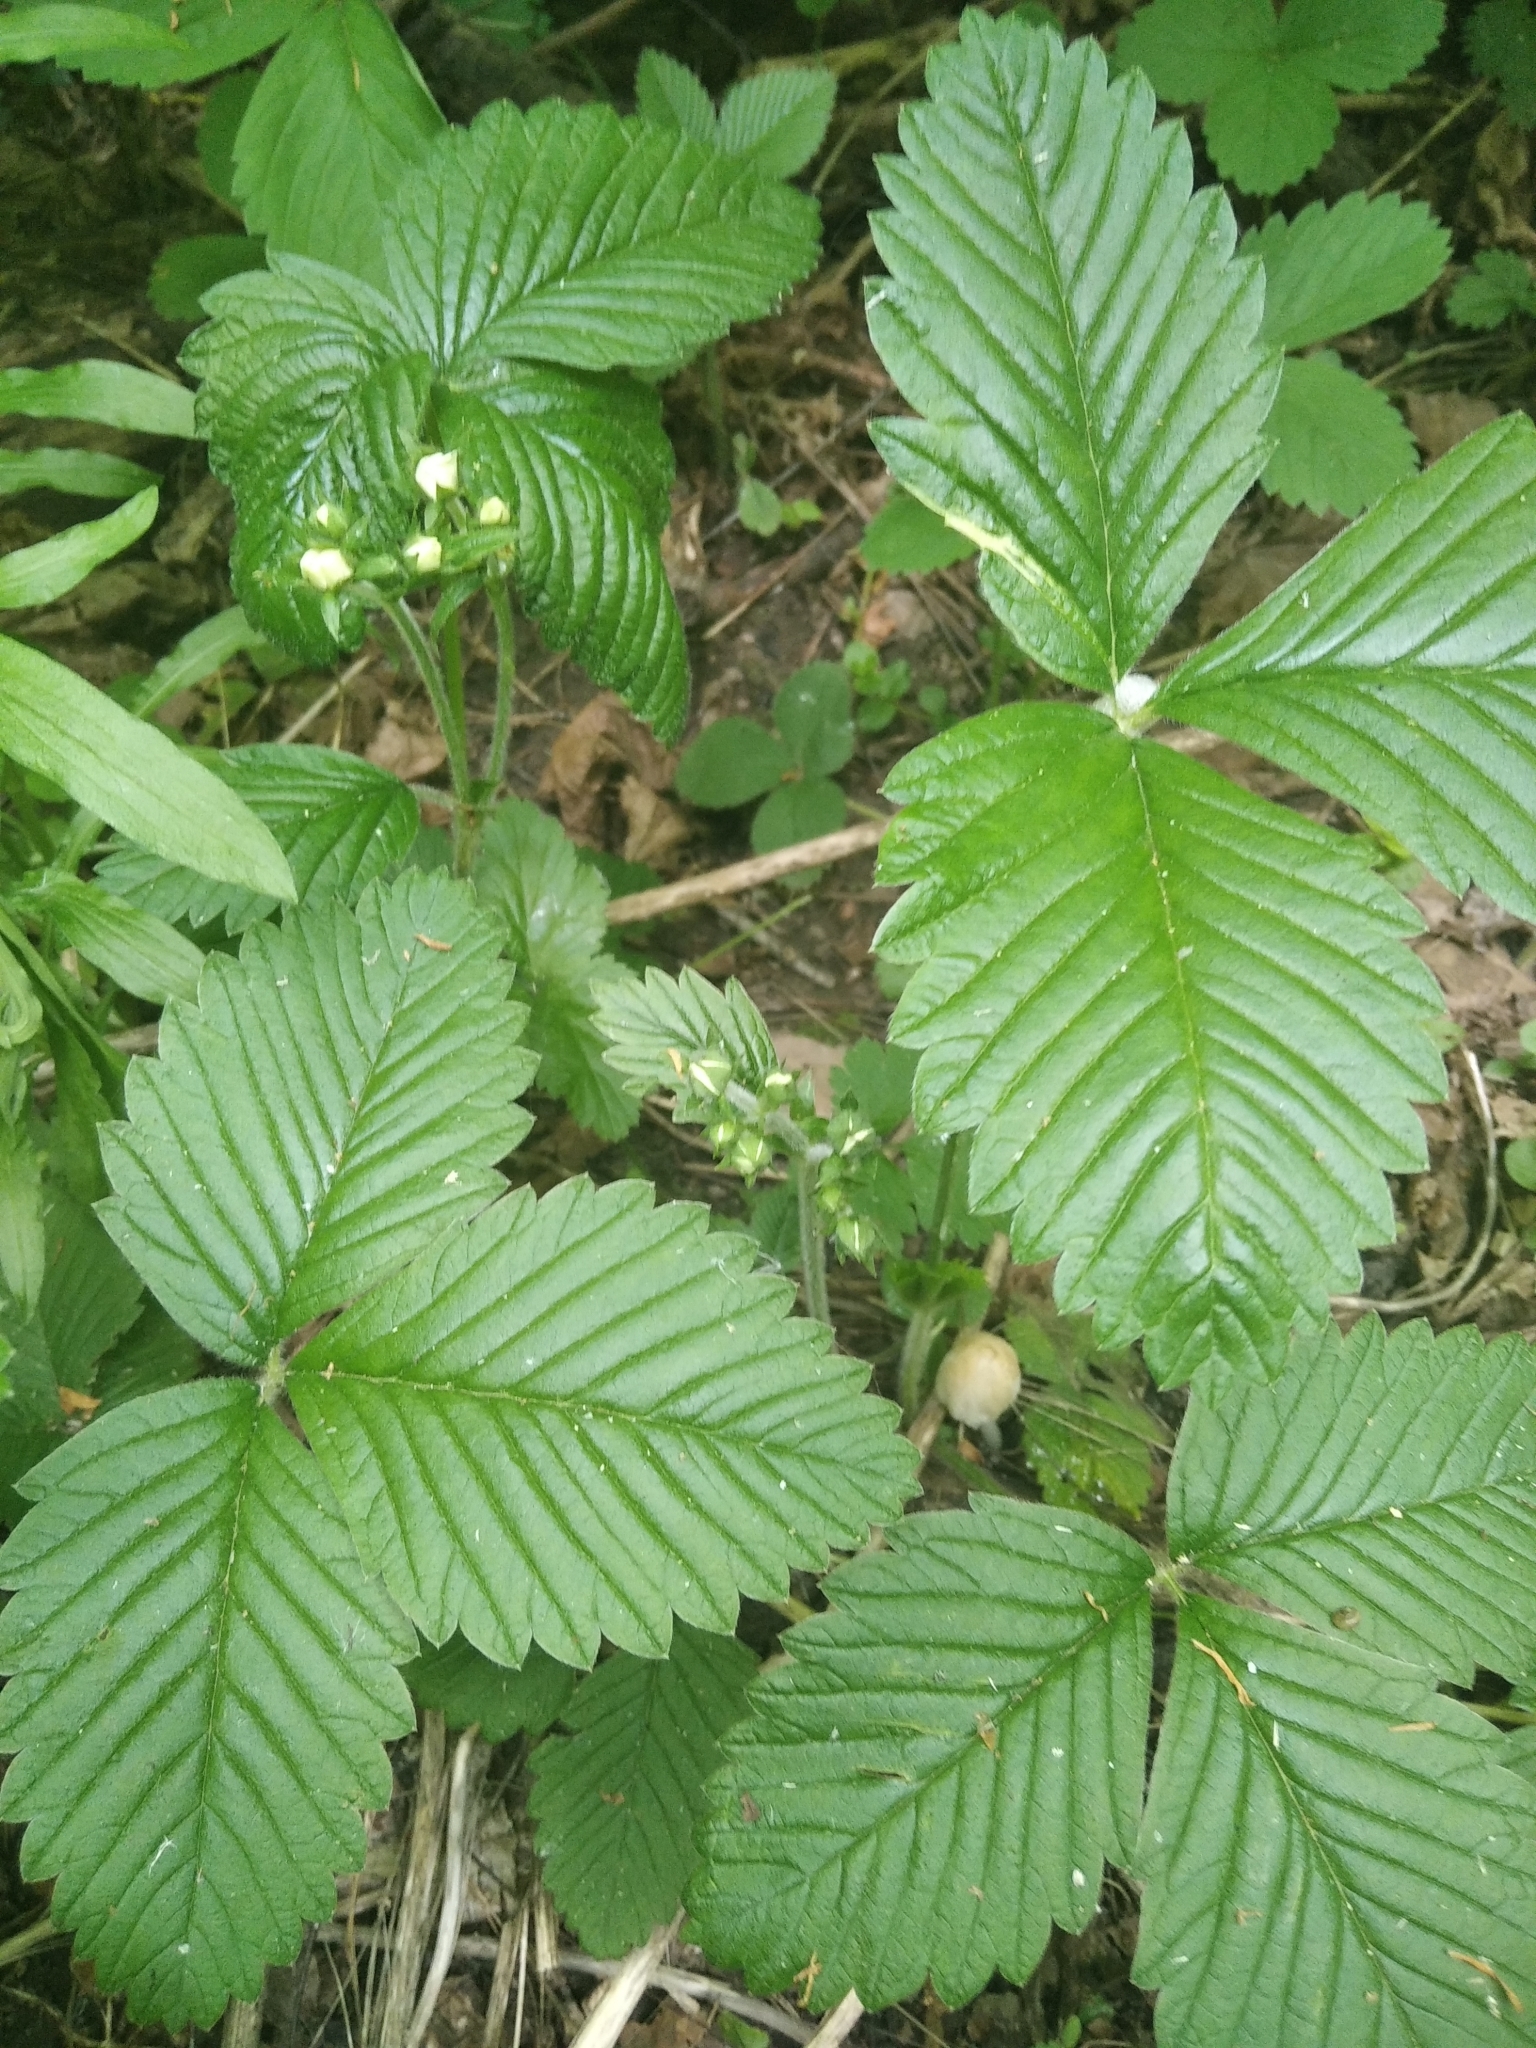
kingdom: Plantae
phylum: Tracheophyta
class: Magnoliopsida
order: Rosales
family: Rosaceae
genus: Fragaria
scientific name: Fragaria moschata
